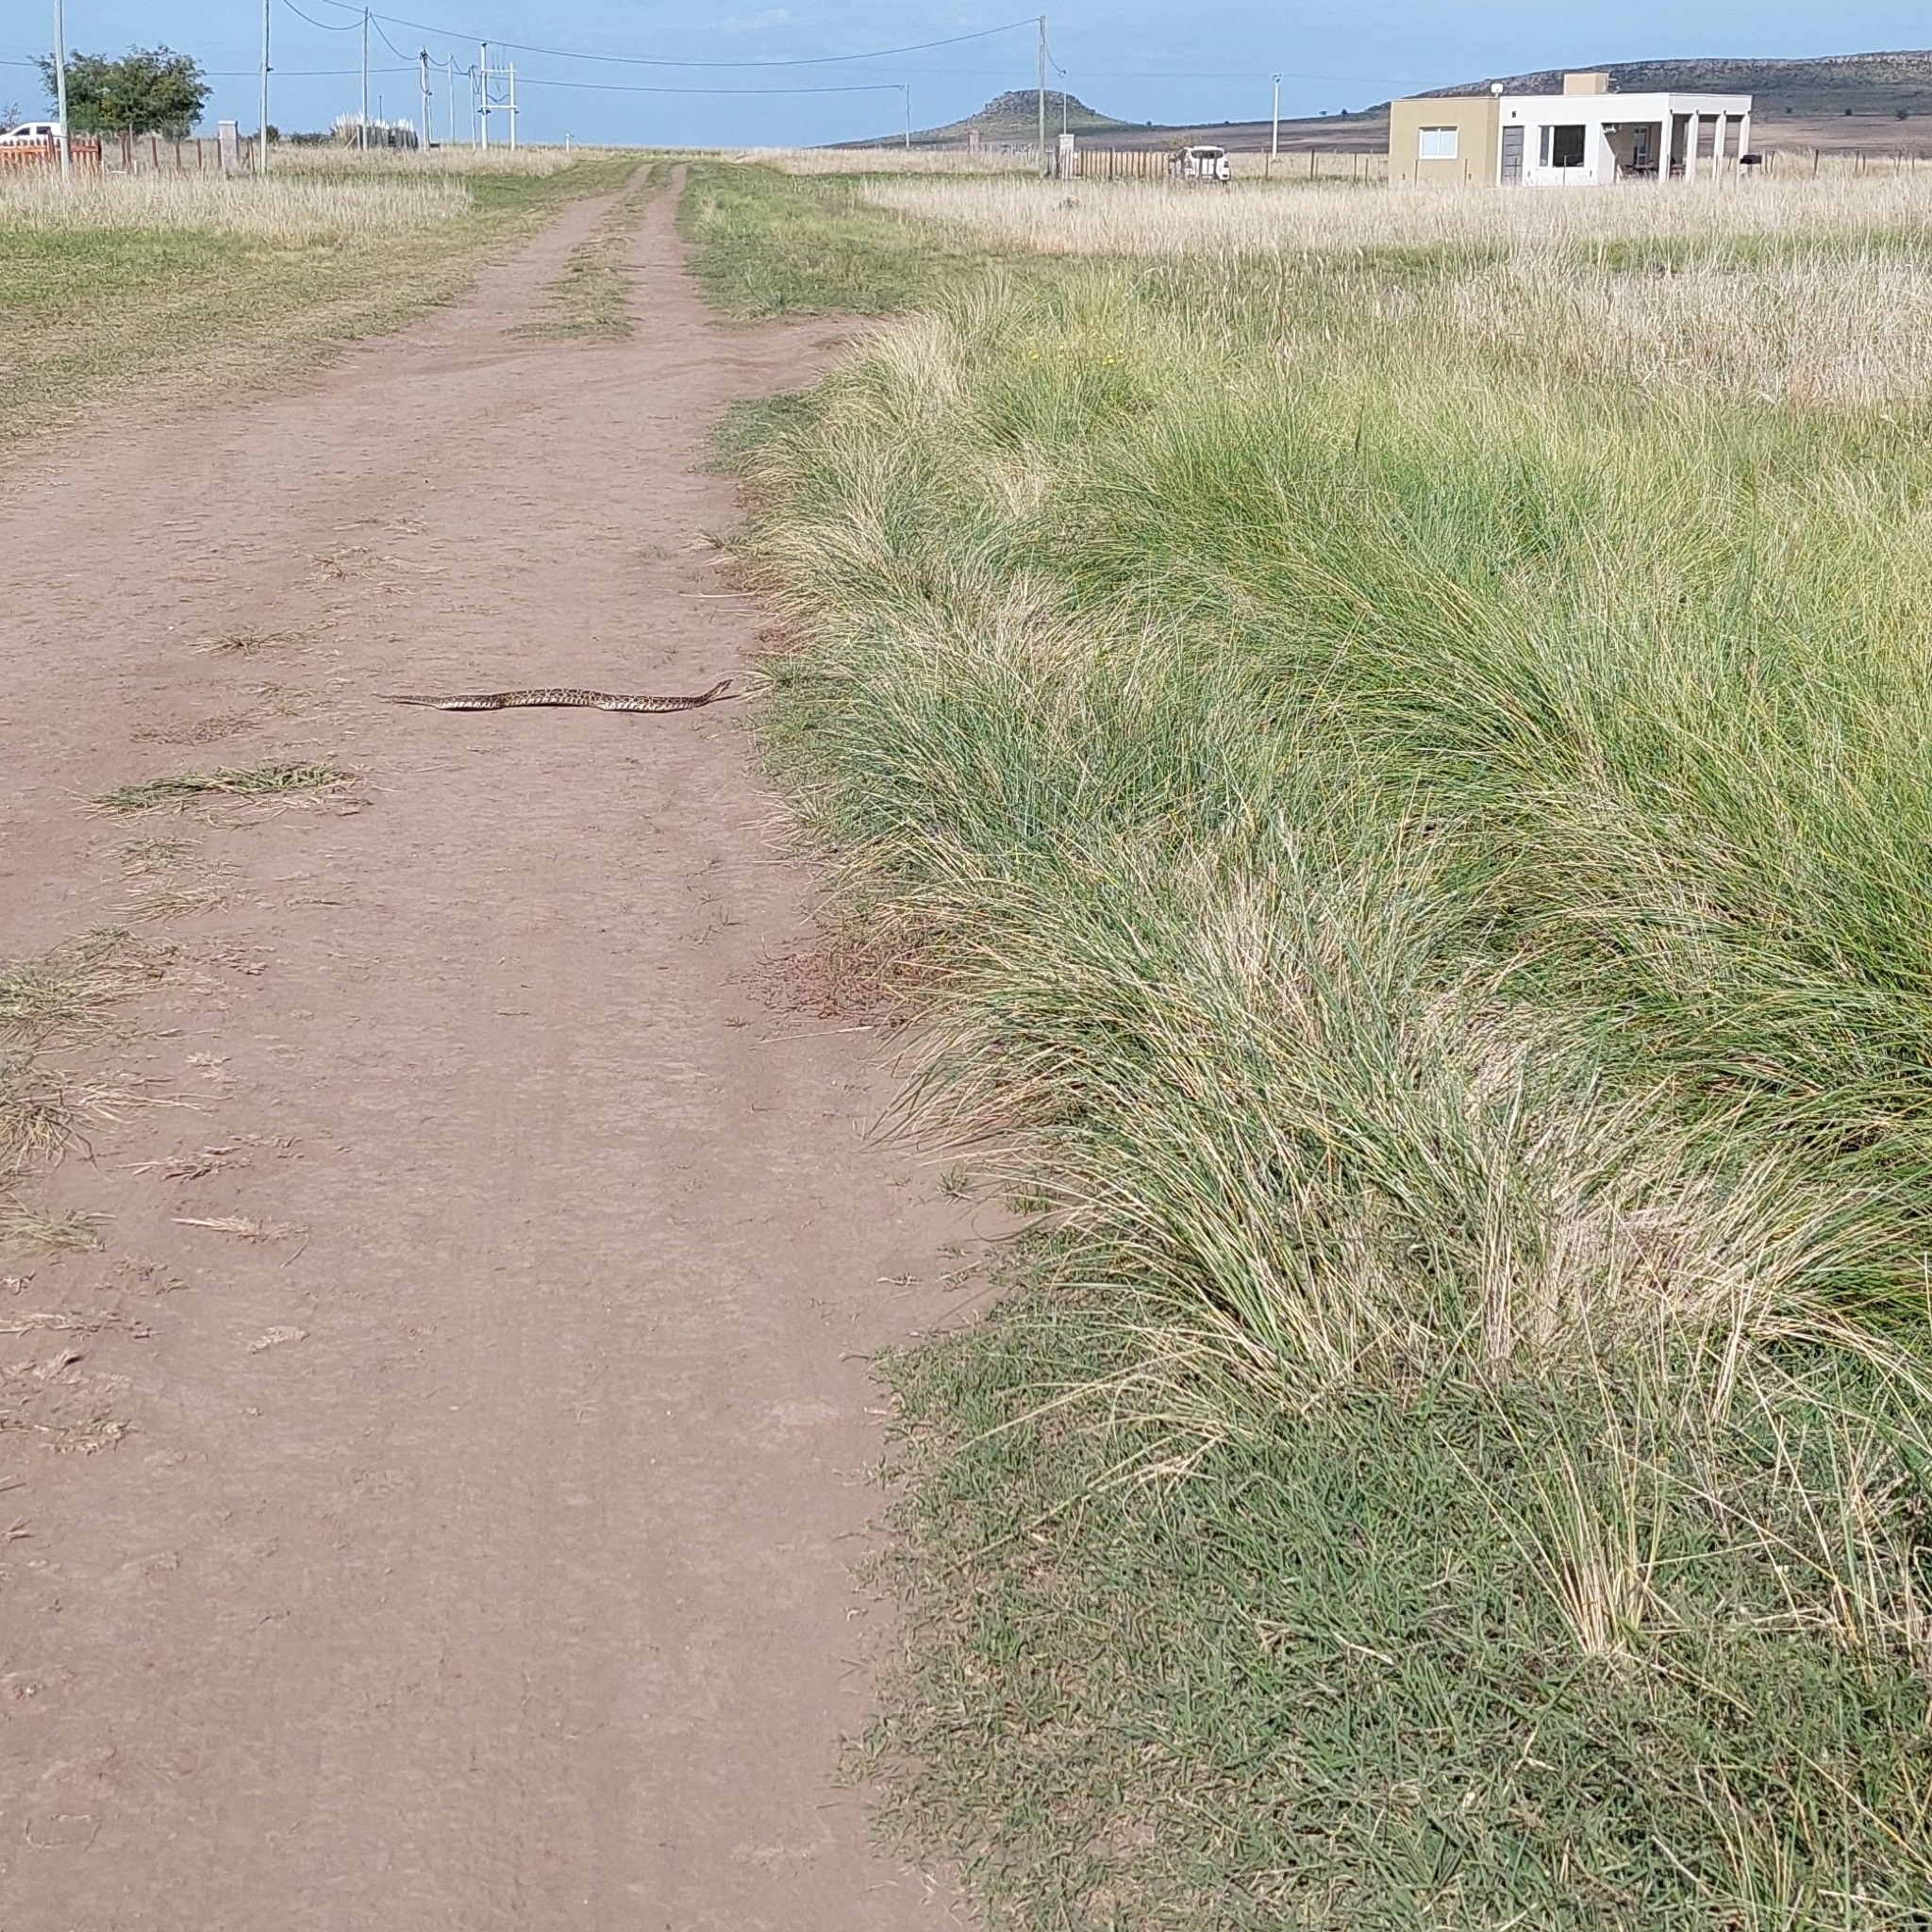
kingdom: Animalia
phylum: Chordata
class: Squamata
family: Viperidae
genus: Bothrops
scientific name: Bothrops alternatus
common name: Urutu
